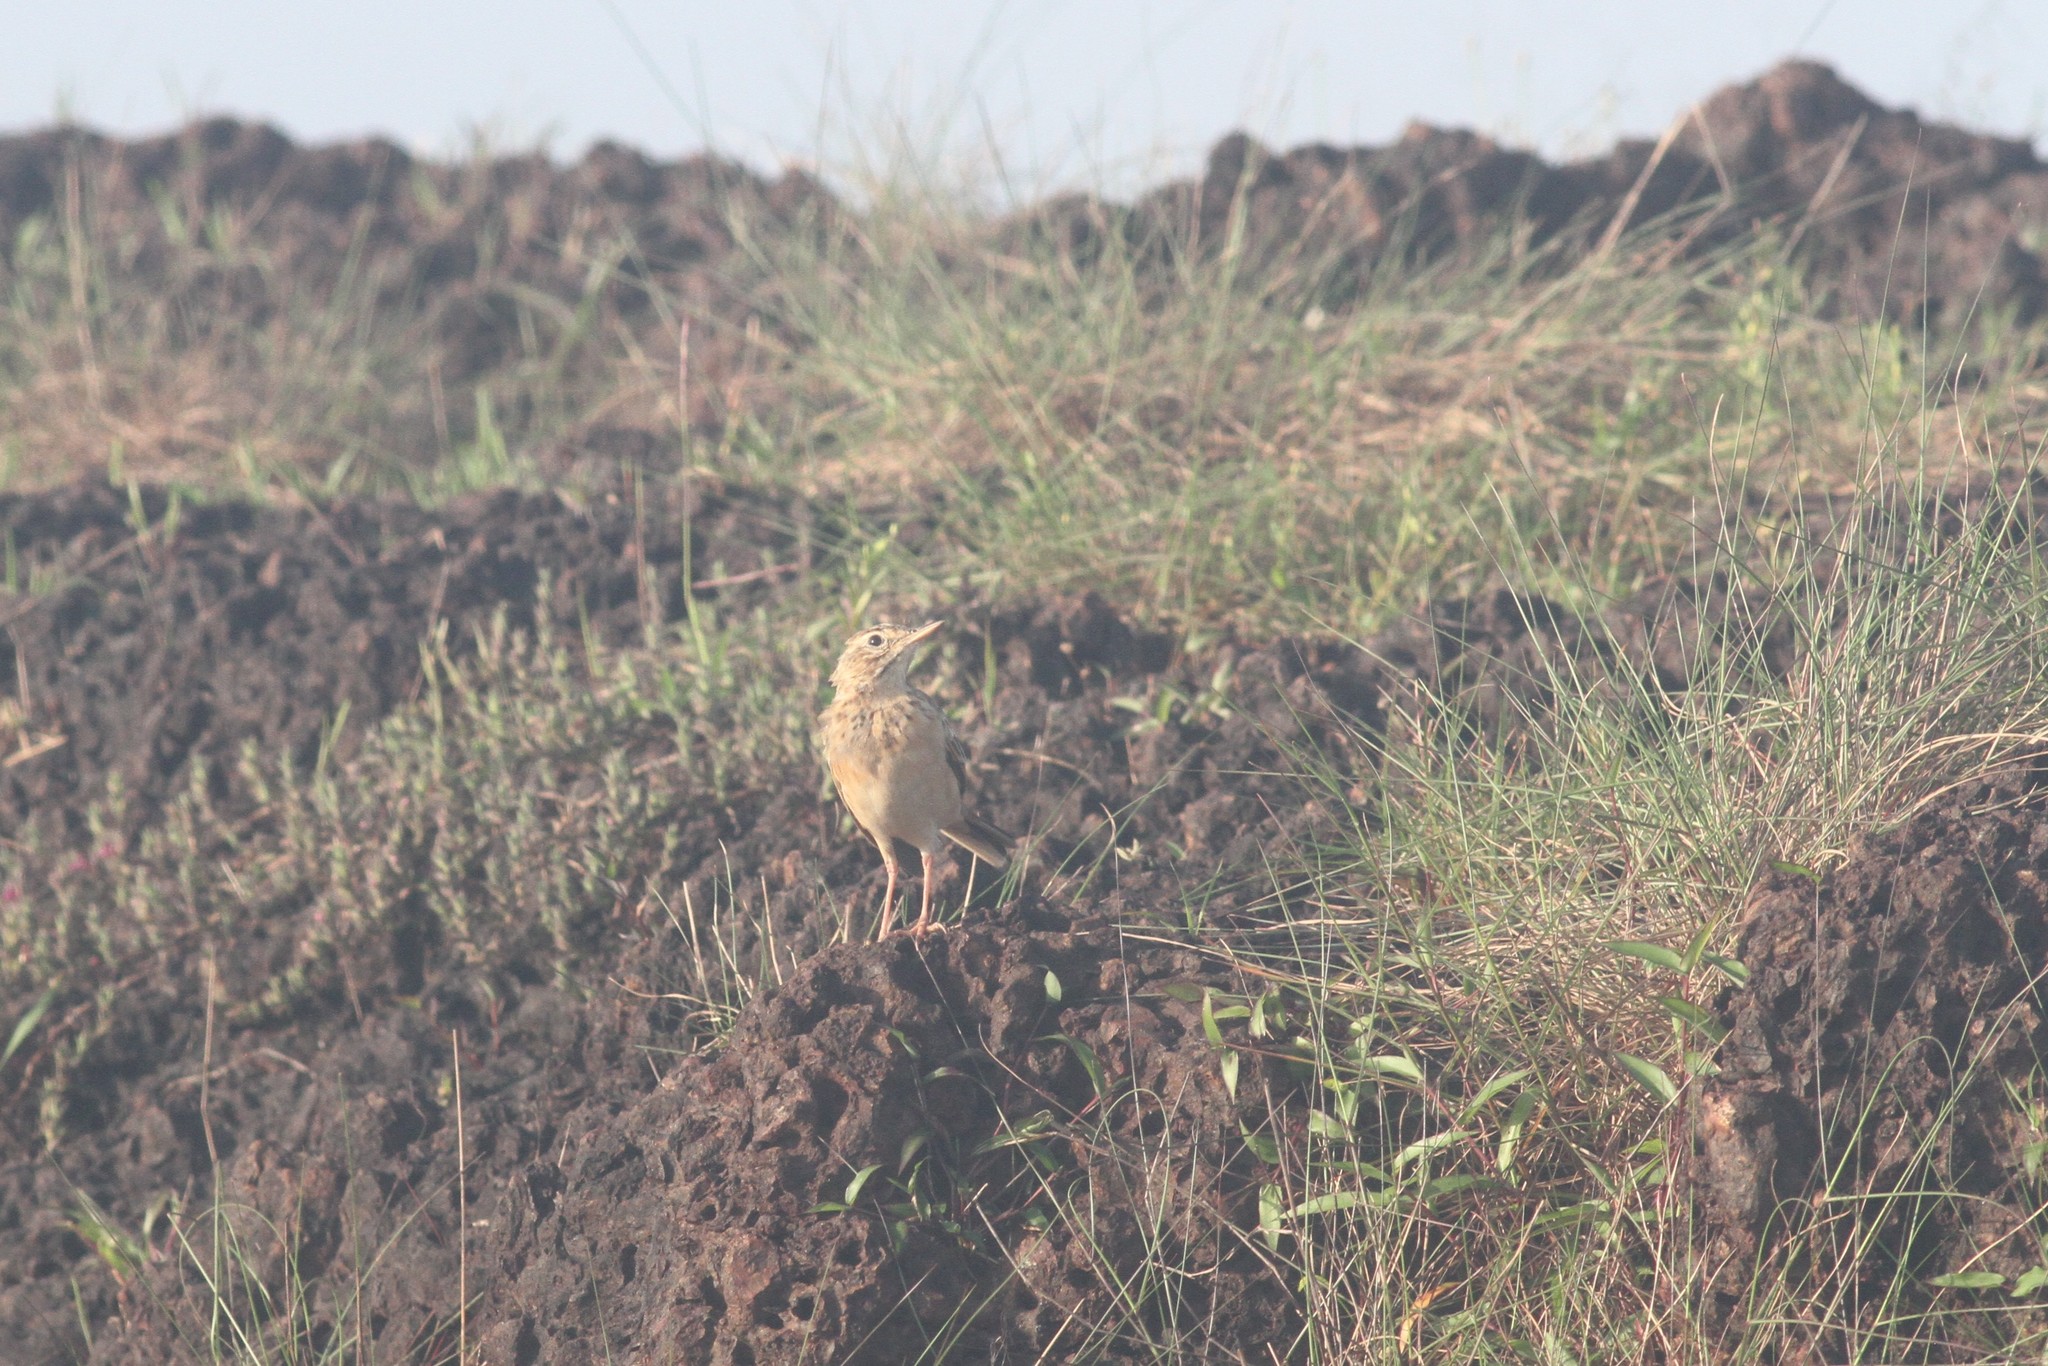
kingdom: Animalia
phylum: Chordata
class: Aves
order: Passeriformes
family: Motacillidae
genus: Anthus
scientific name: Anthus rufulus
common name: Paddyfield pipit
